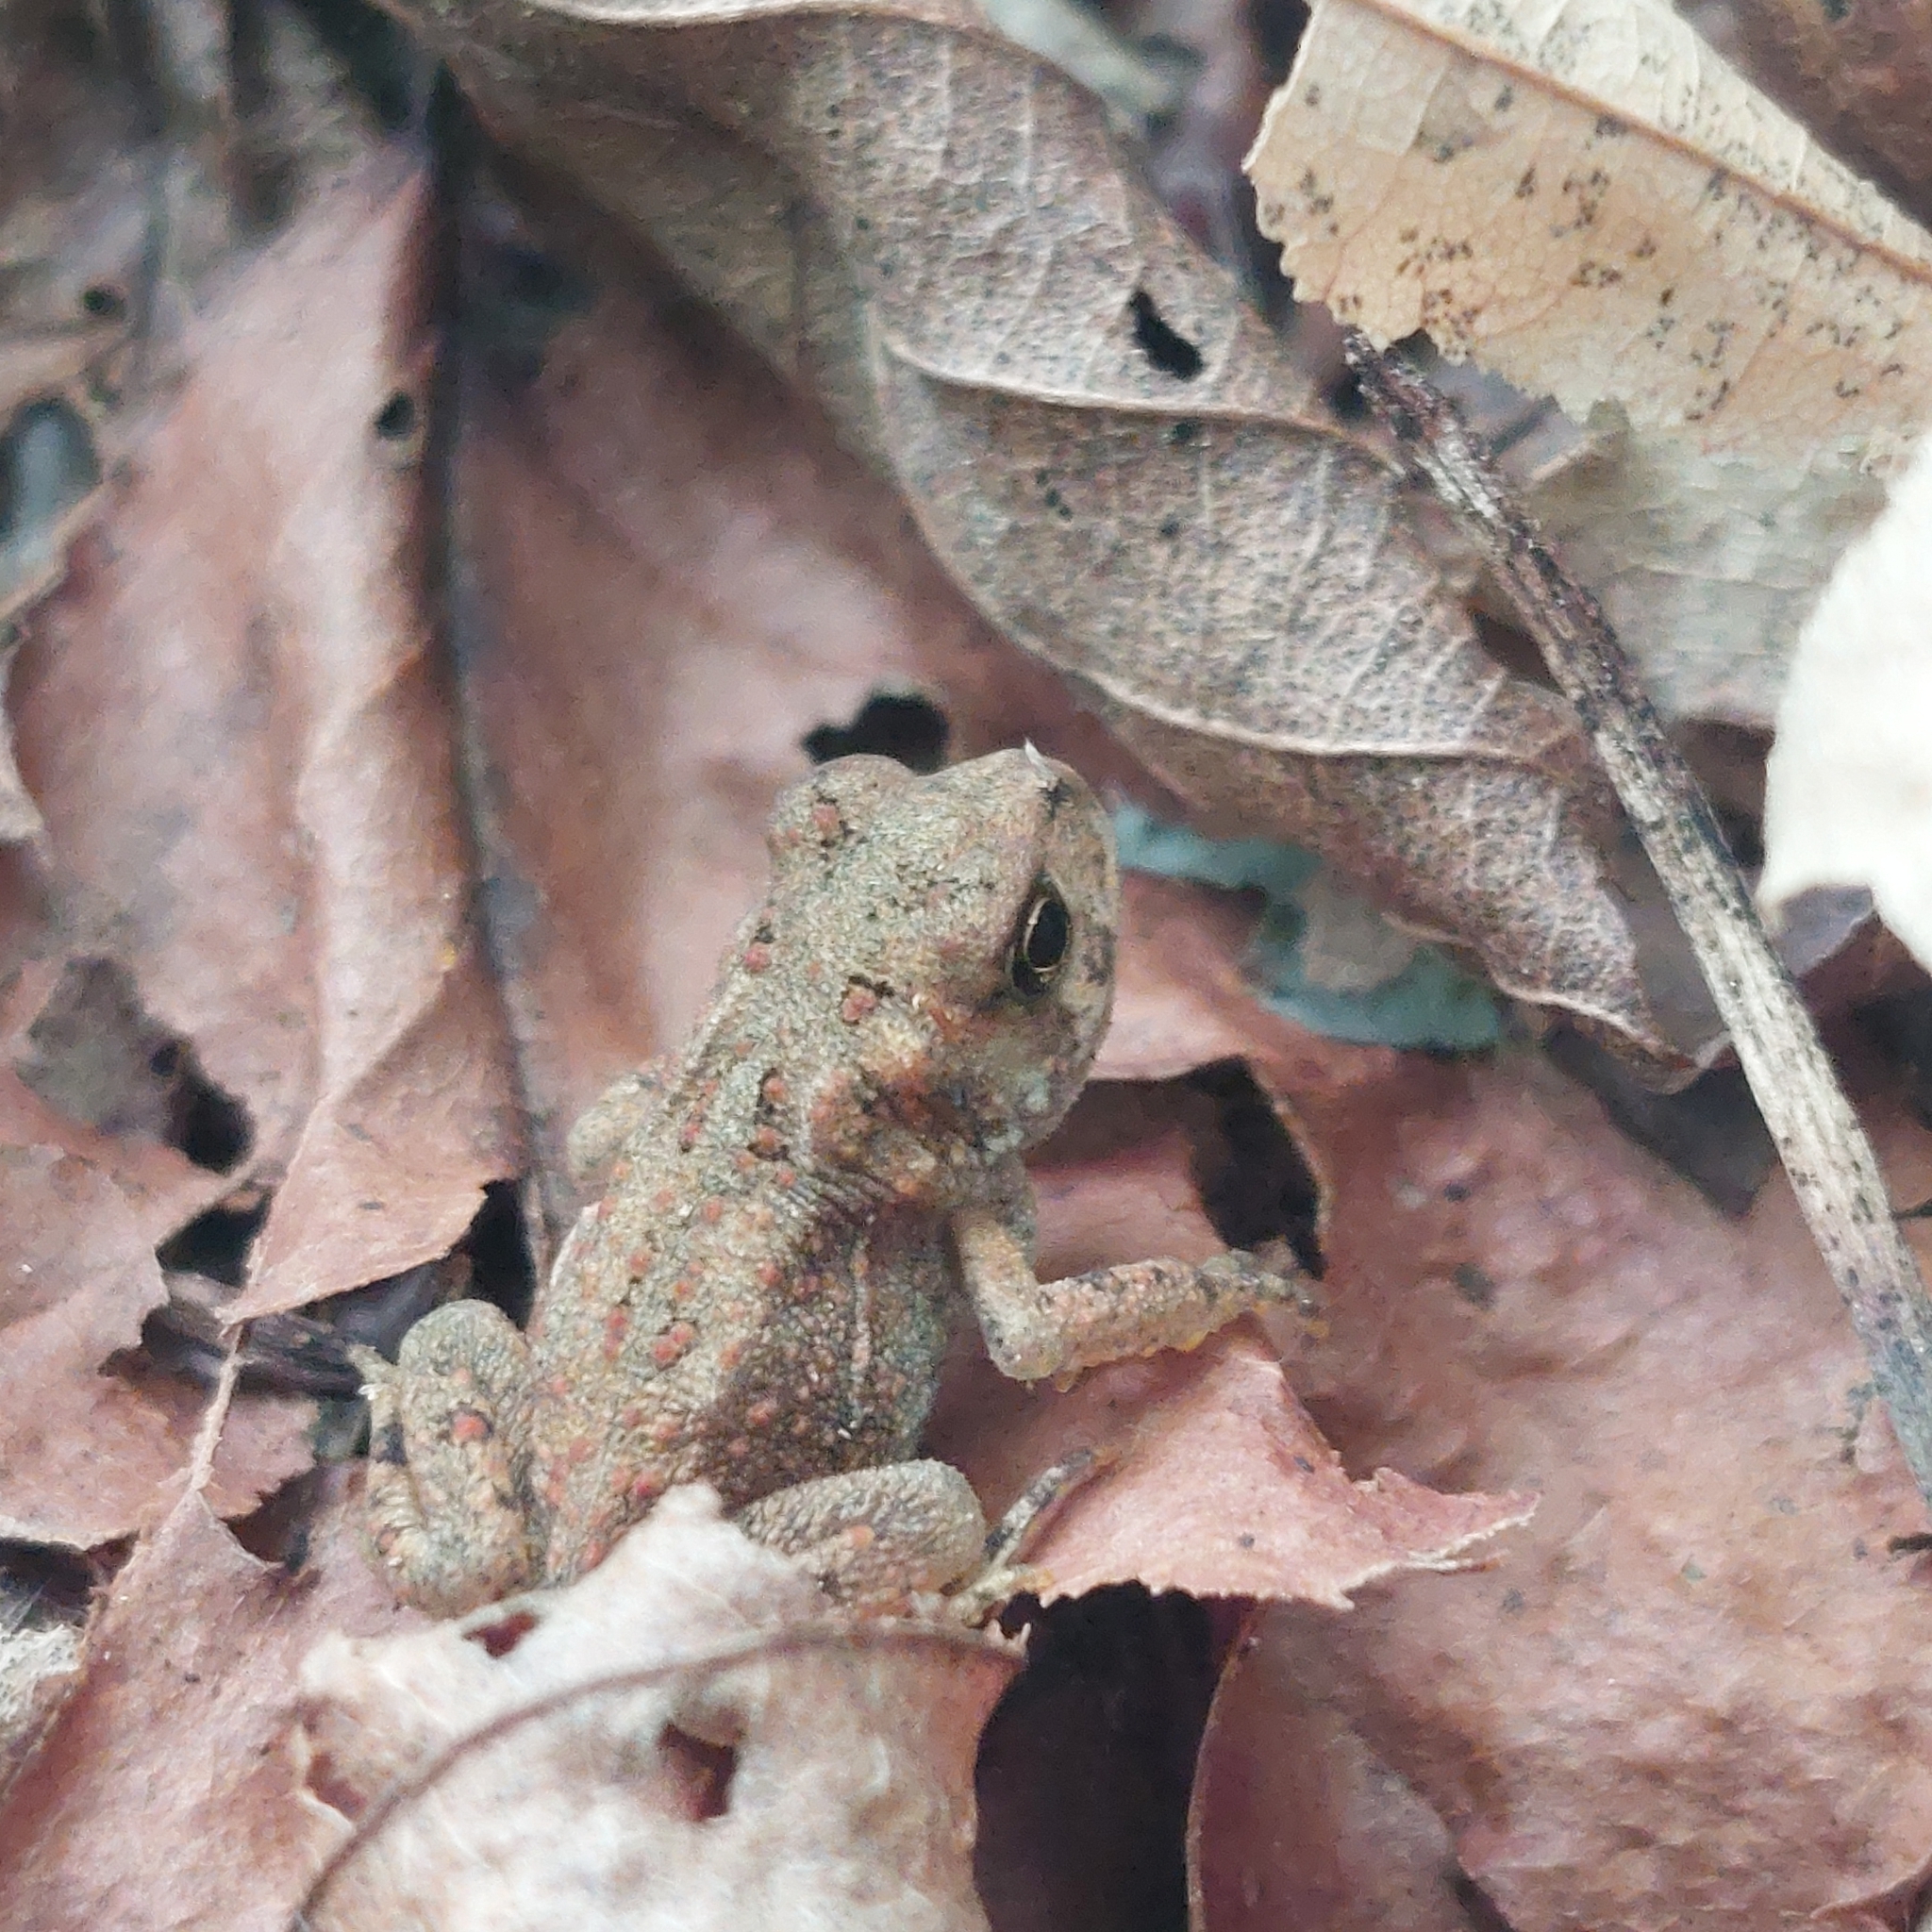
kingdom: Animalia
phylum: Chordata
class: Amphibia
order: Anura
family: Bufonidae
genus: Anaxyrus
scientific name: Anaxyrus americanus
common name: American toad
